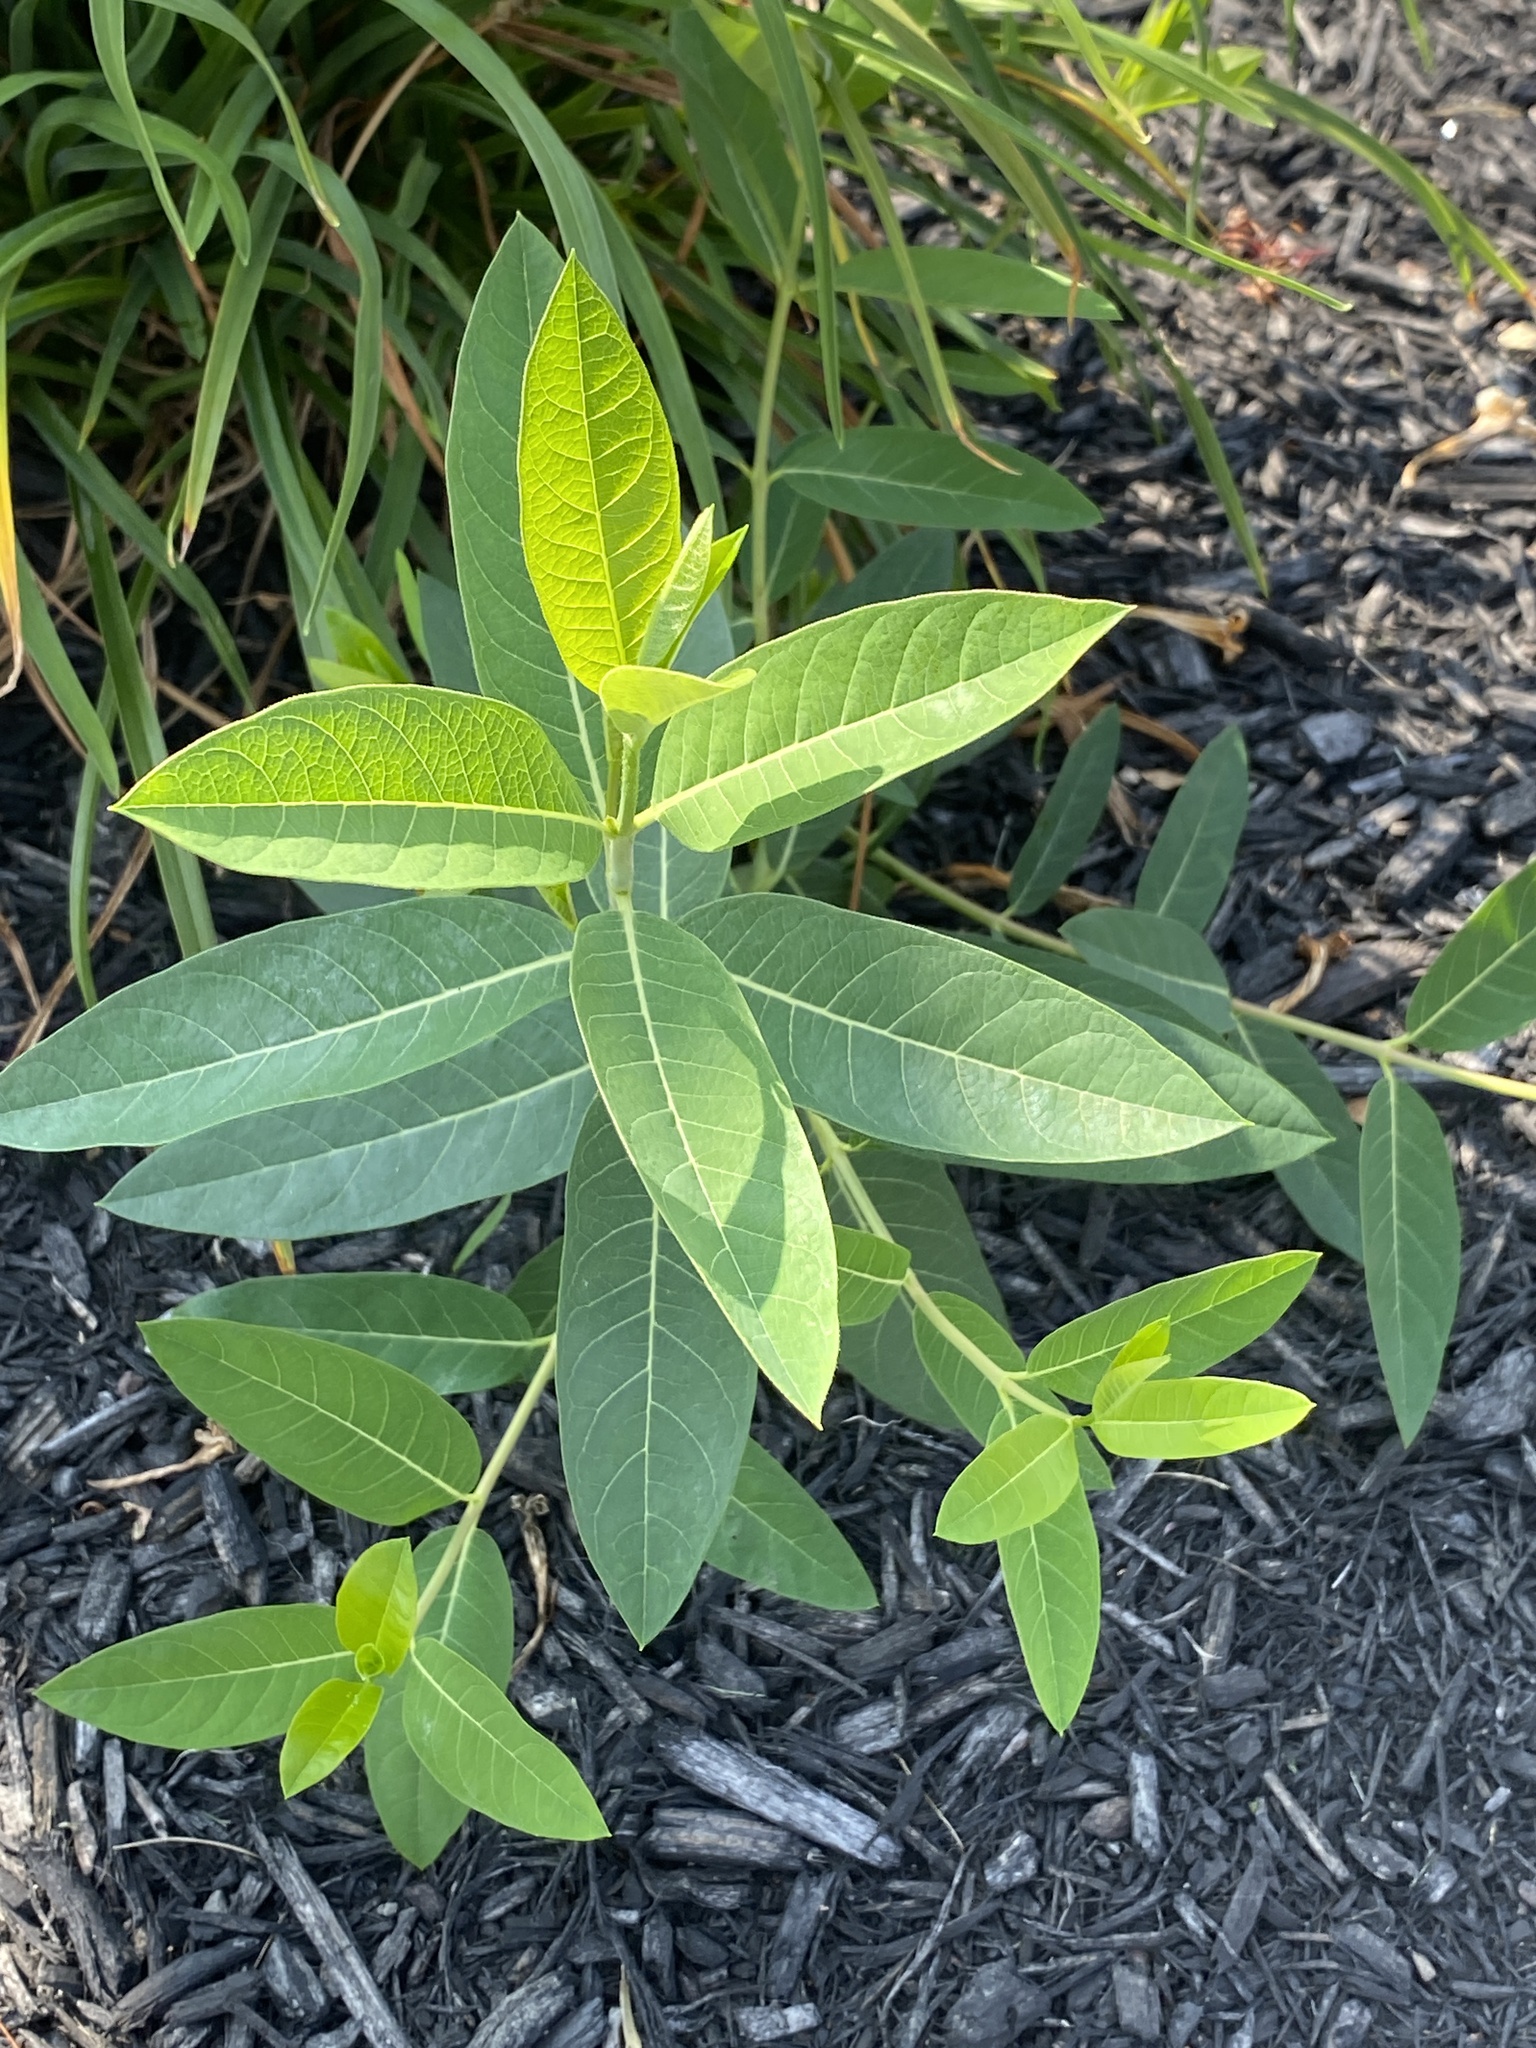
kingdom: Plantae
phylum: Tracheophyta
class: Magnoliopsida
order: Gentianales
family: Apocynaceae
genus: Apocynum
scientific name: Apocynum cannabinum
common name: Hemp dogbane
